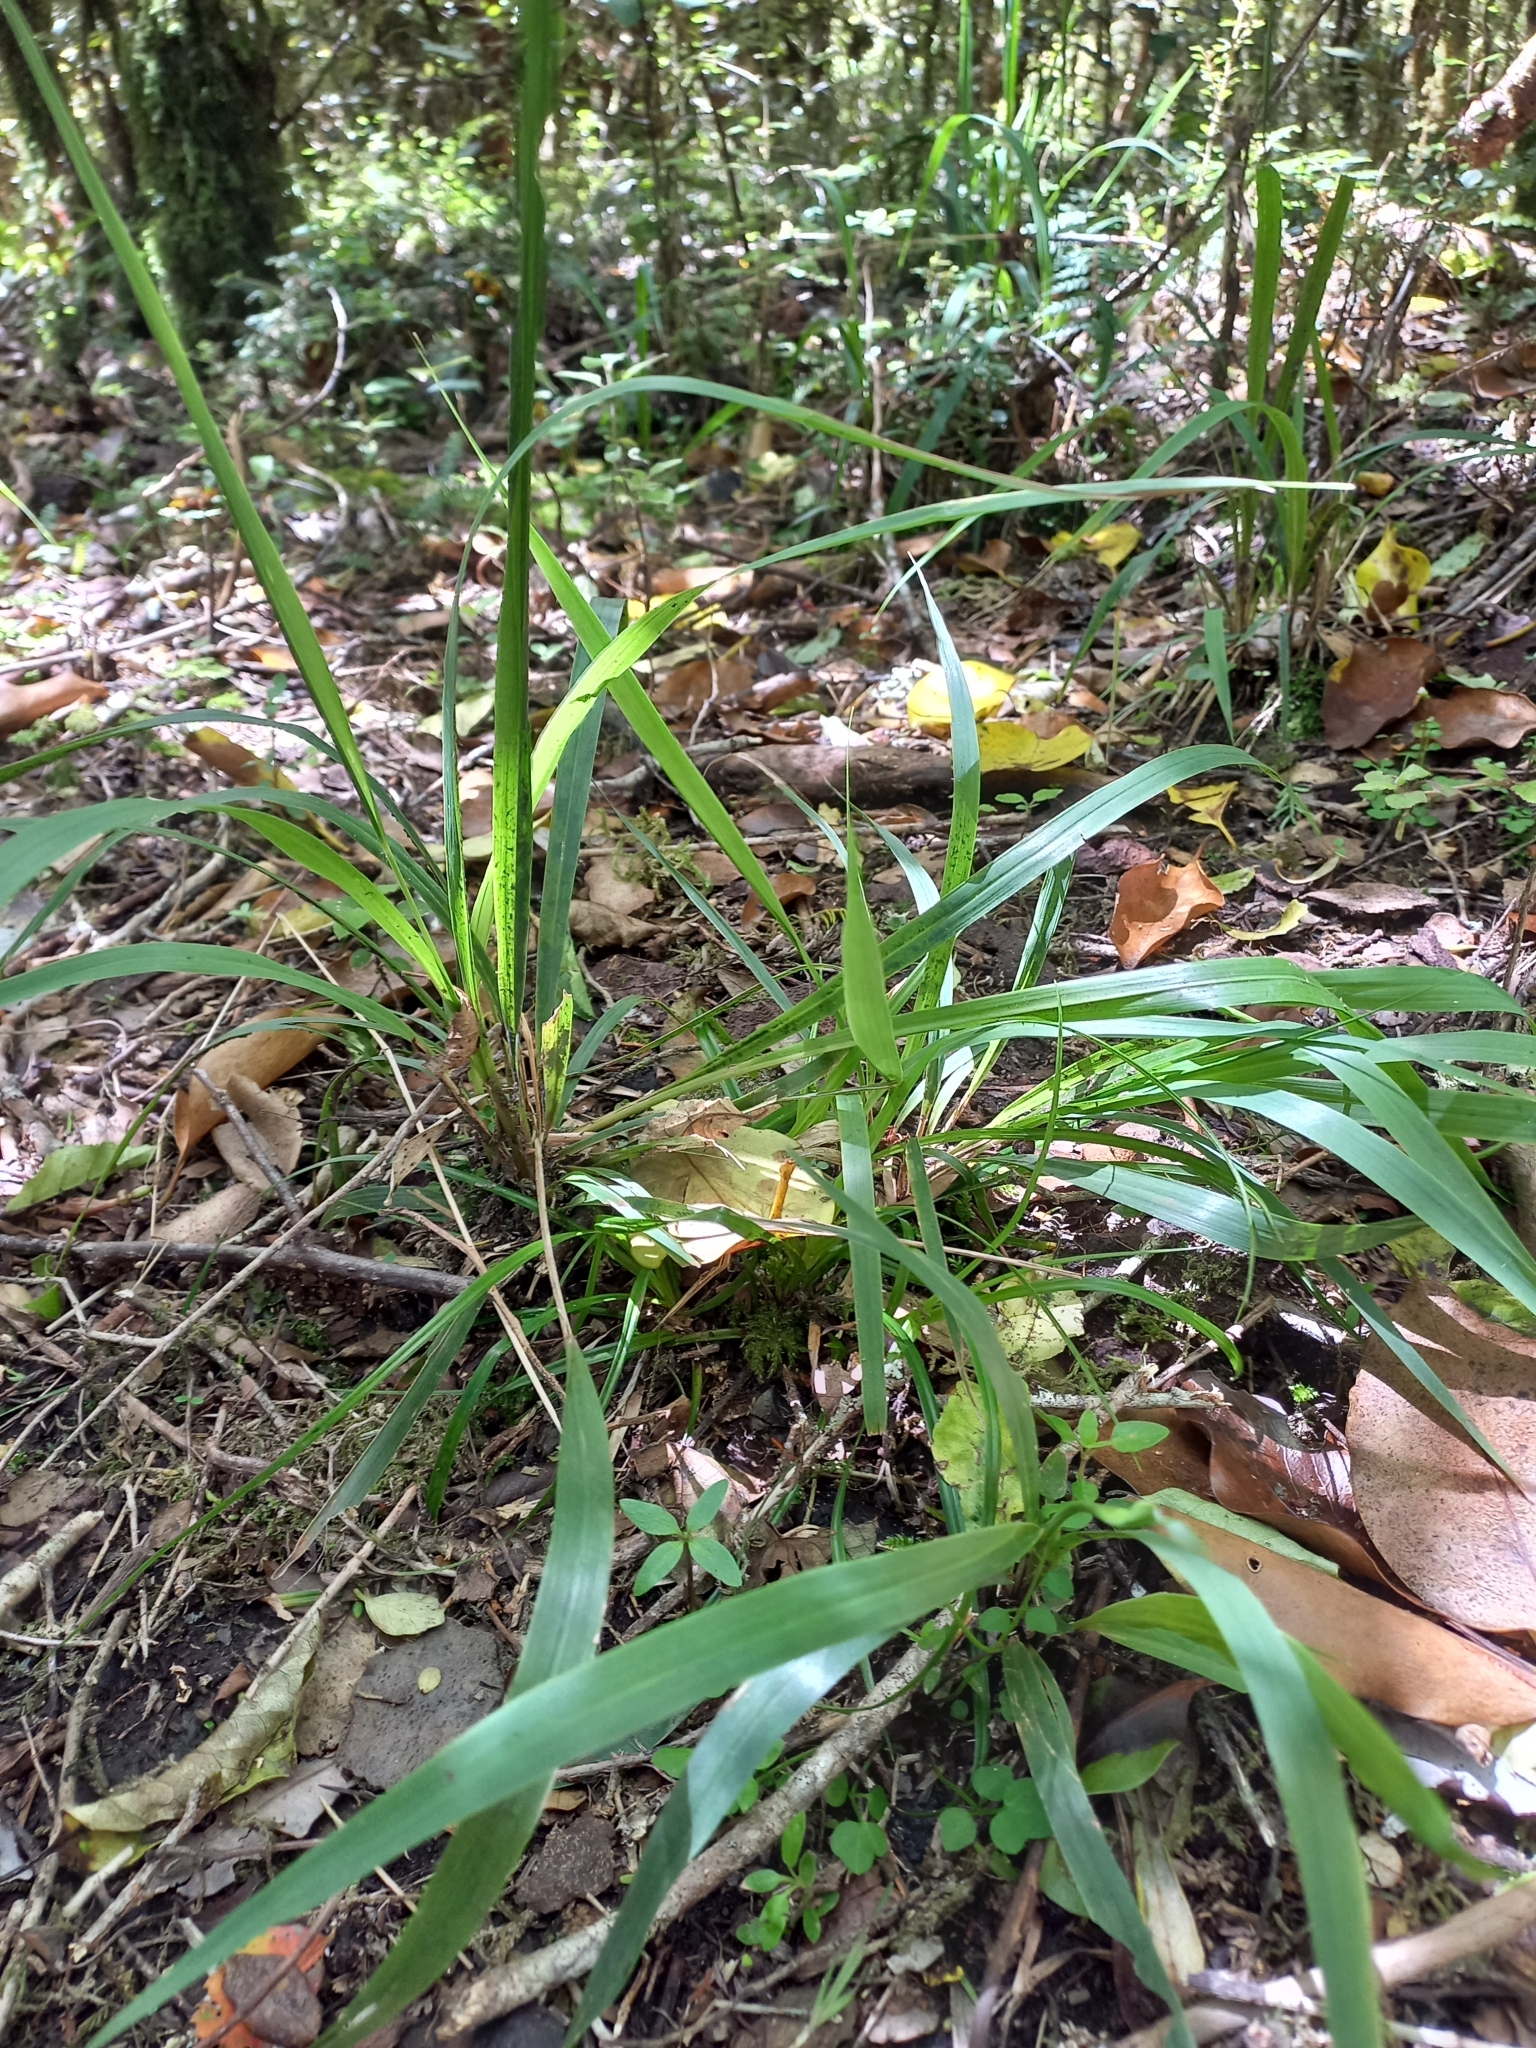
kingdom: Plantae
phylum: Tracheophyta
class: Liliopsida
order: Poales
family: Poaceae
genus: Ehrharta
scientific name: Ehrharta diplax
